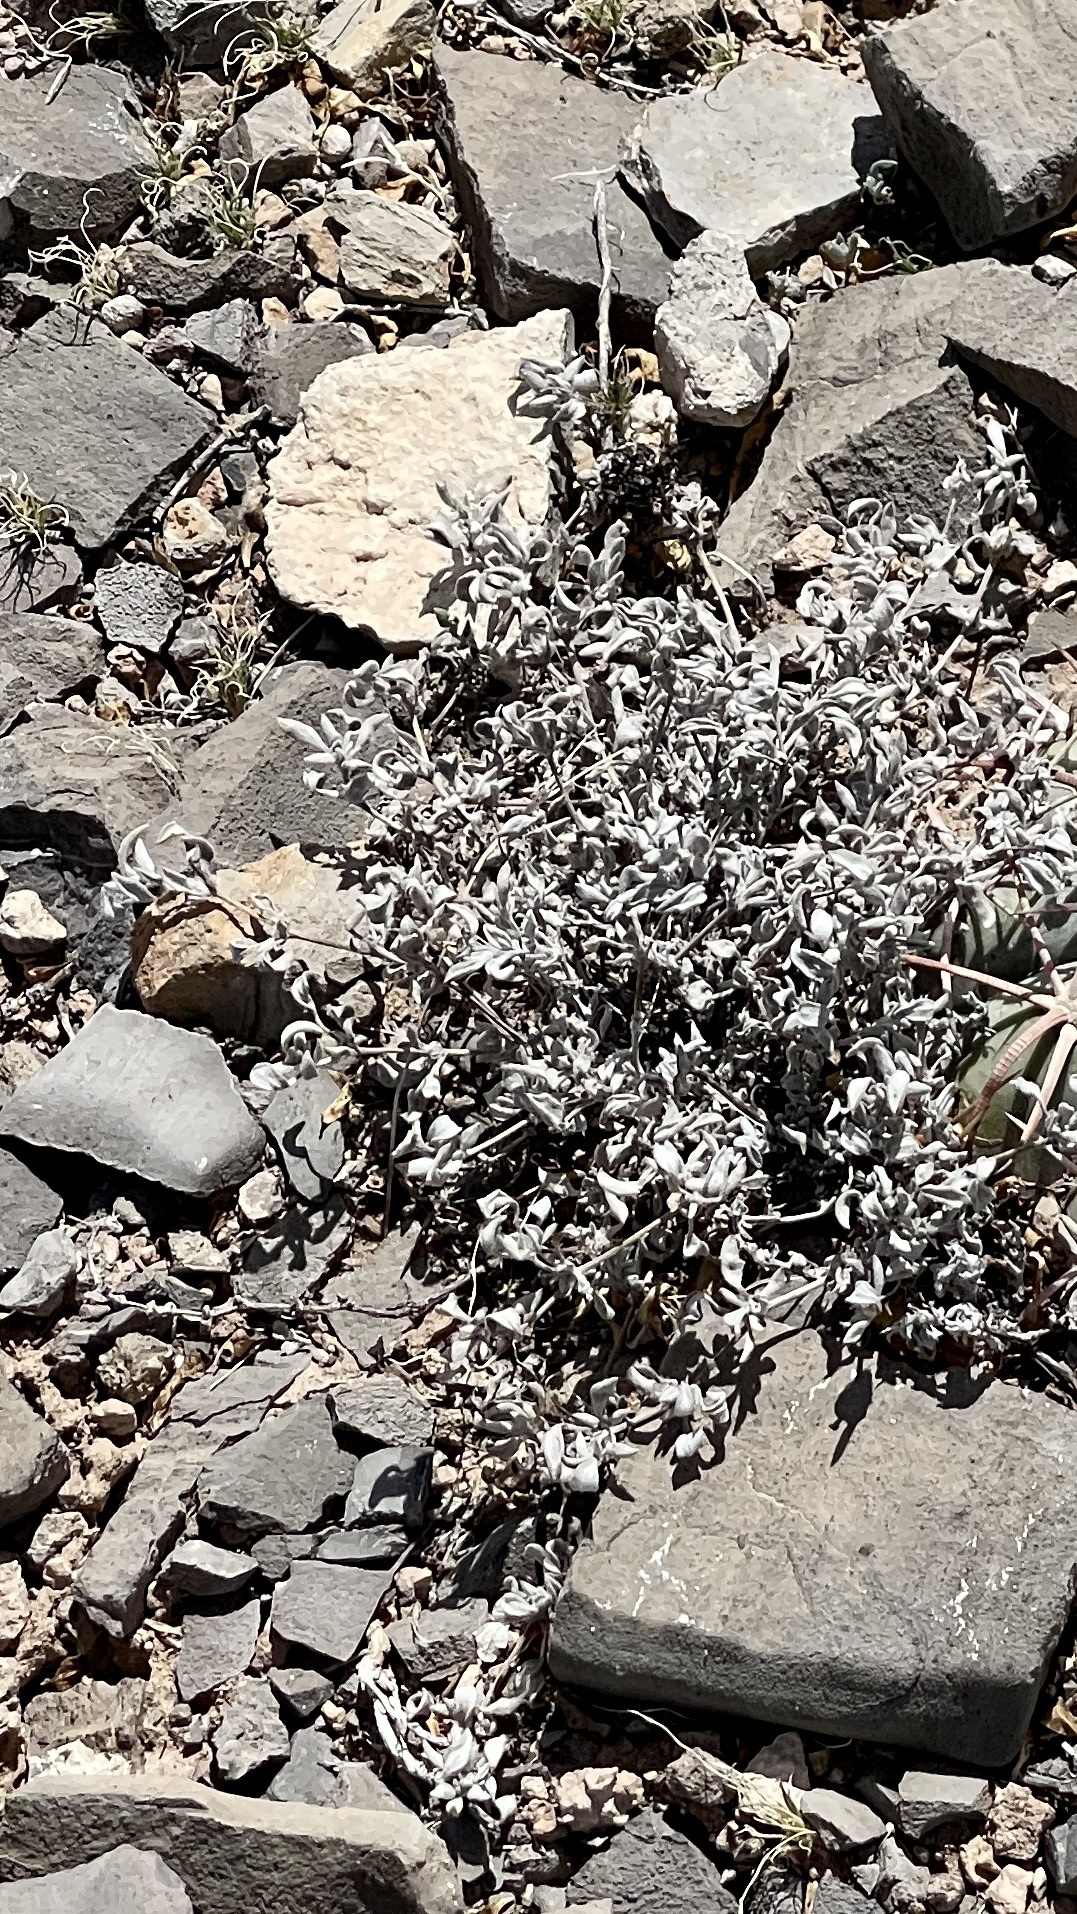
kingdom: Plantae
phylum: Tracheophyta
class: Magnoliopsida
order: Boraginales
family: Ehretiaceae
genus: Tiquilia
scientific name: Tiquilia canescens
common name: Hairy tiquilia
